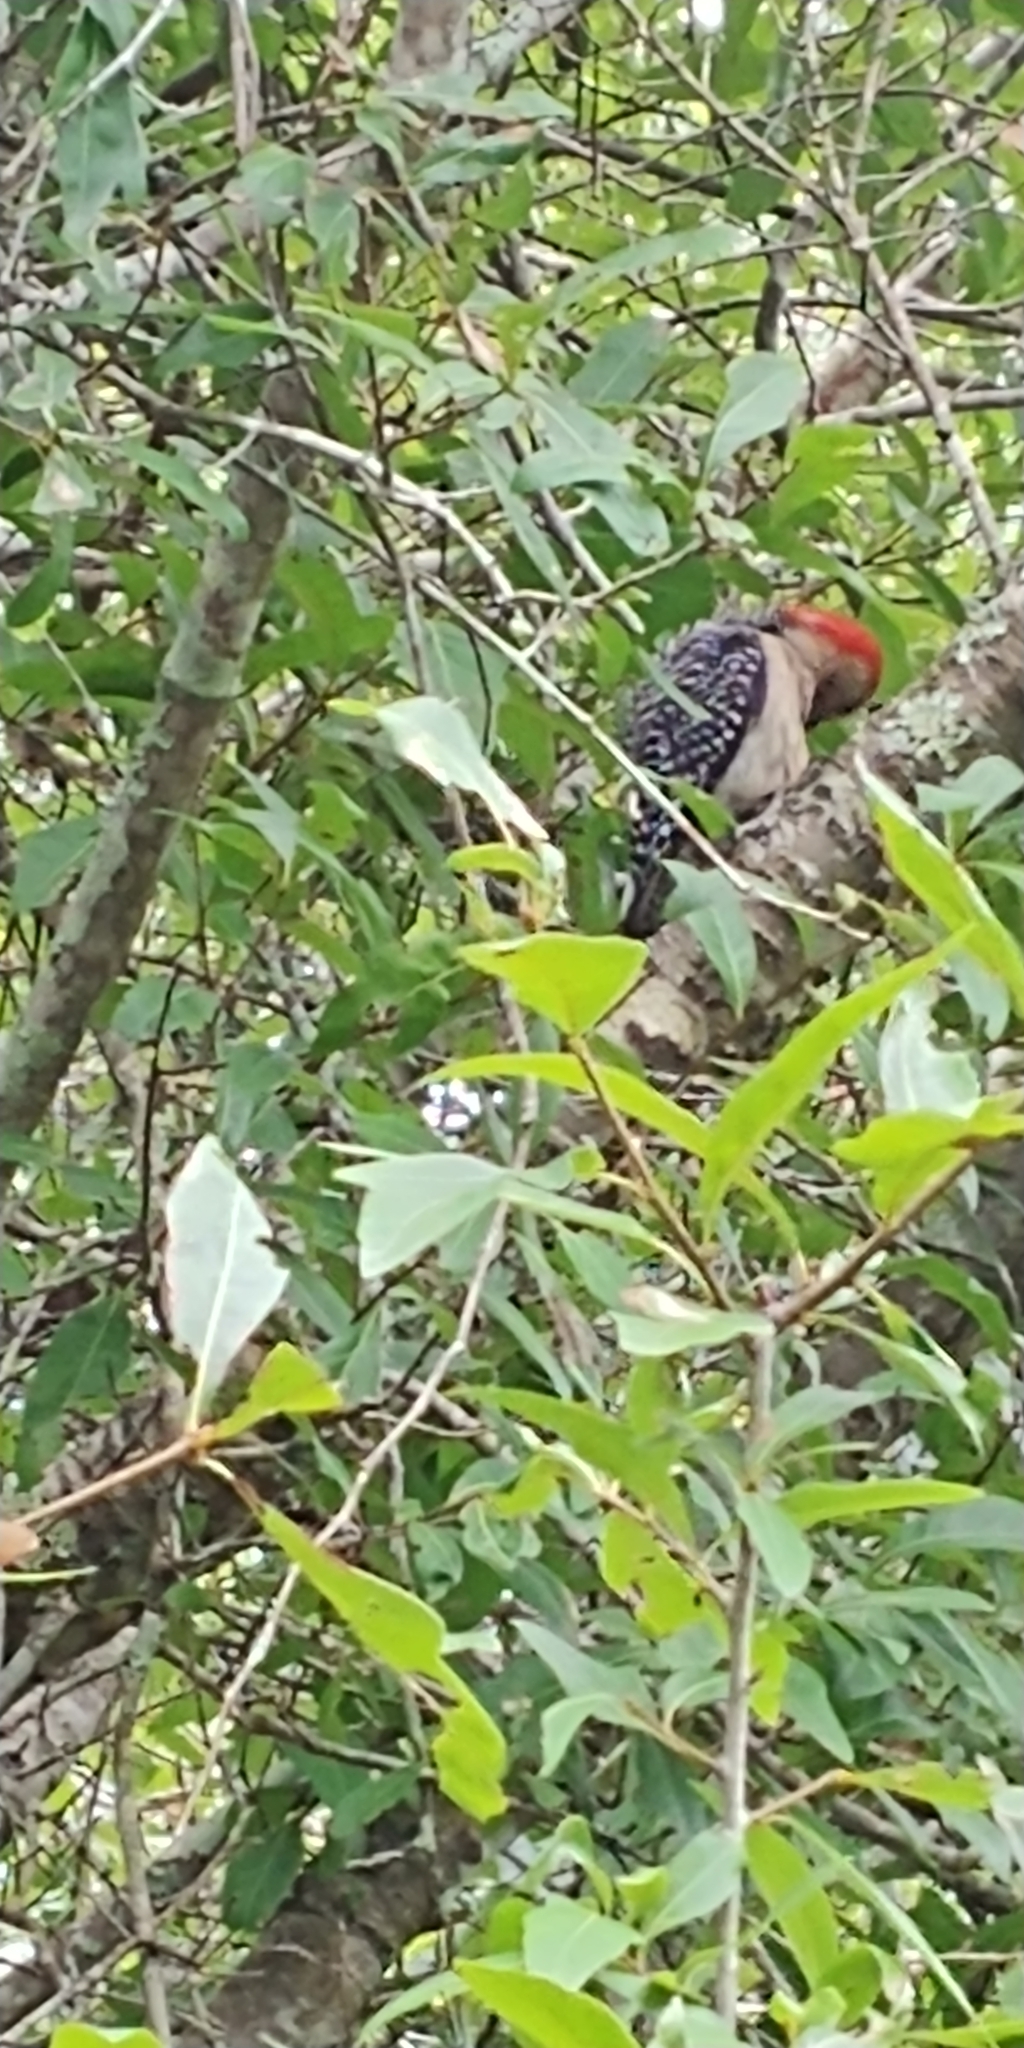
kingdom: Animalia
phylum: Chordata
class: Aves
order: Piciformes
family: Picidae
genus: Melanerpes
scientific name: Melanerpes carolinus
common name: Red-bellied woodpecker
